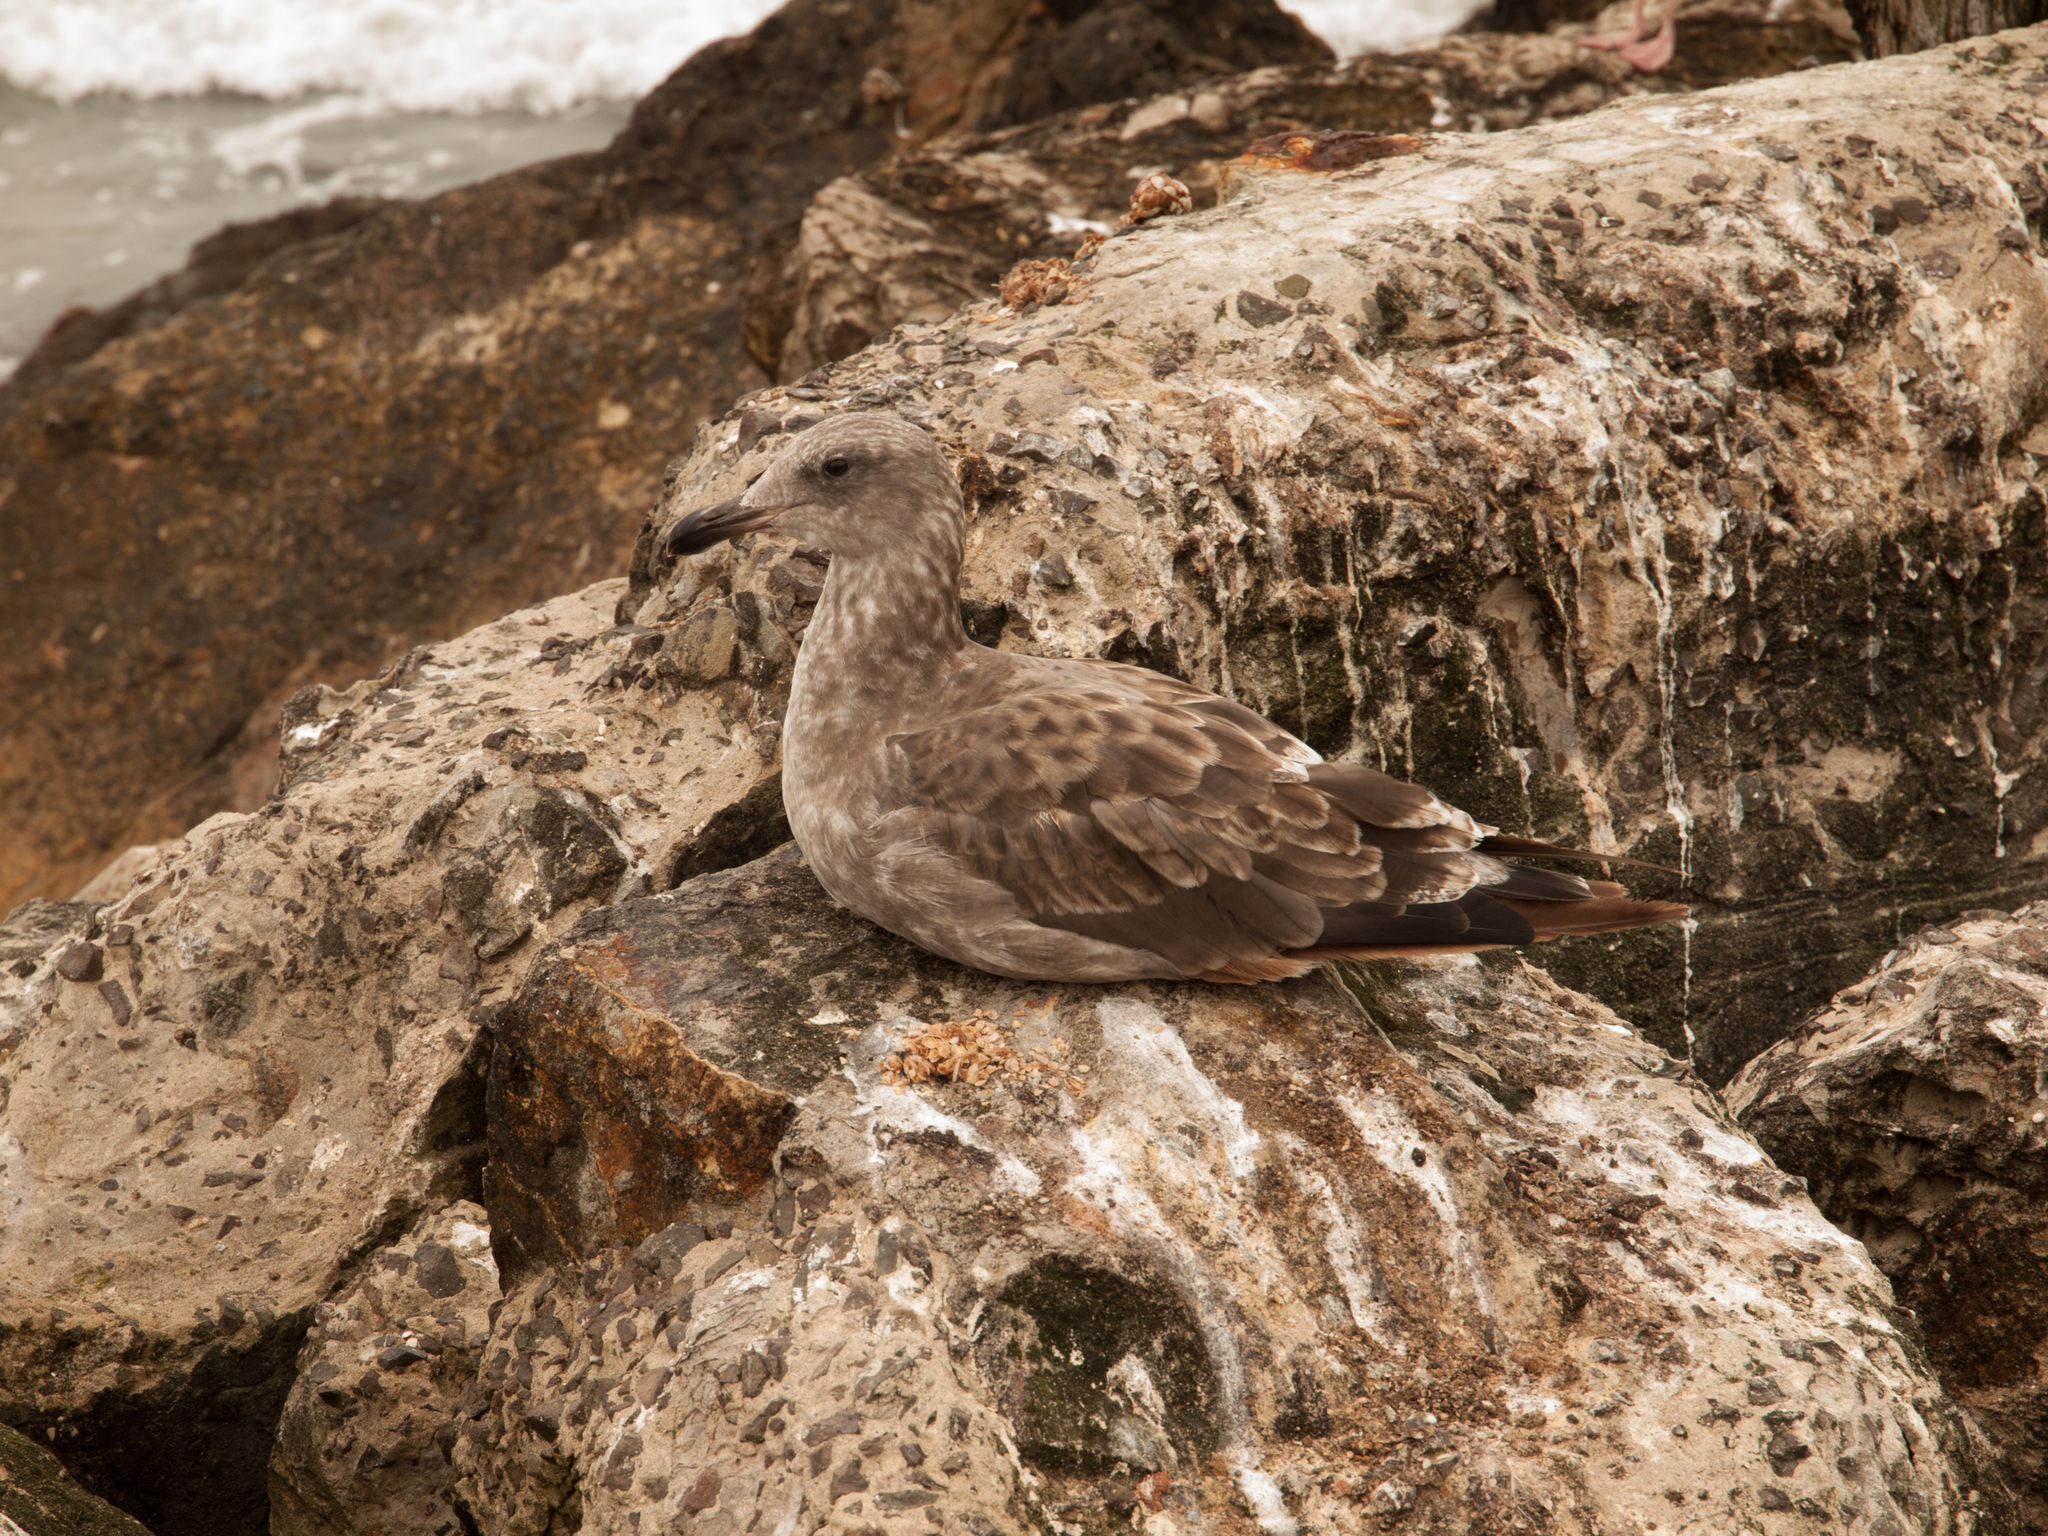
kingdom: Animalia
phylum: Chordata
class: Aves
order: Charadriiformes
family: Laridae
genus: Larus
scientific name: Larus occidentalis
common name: Western gull
